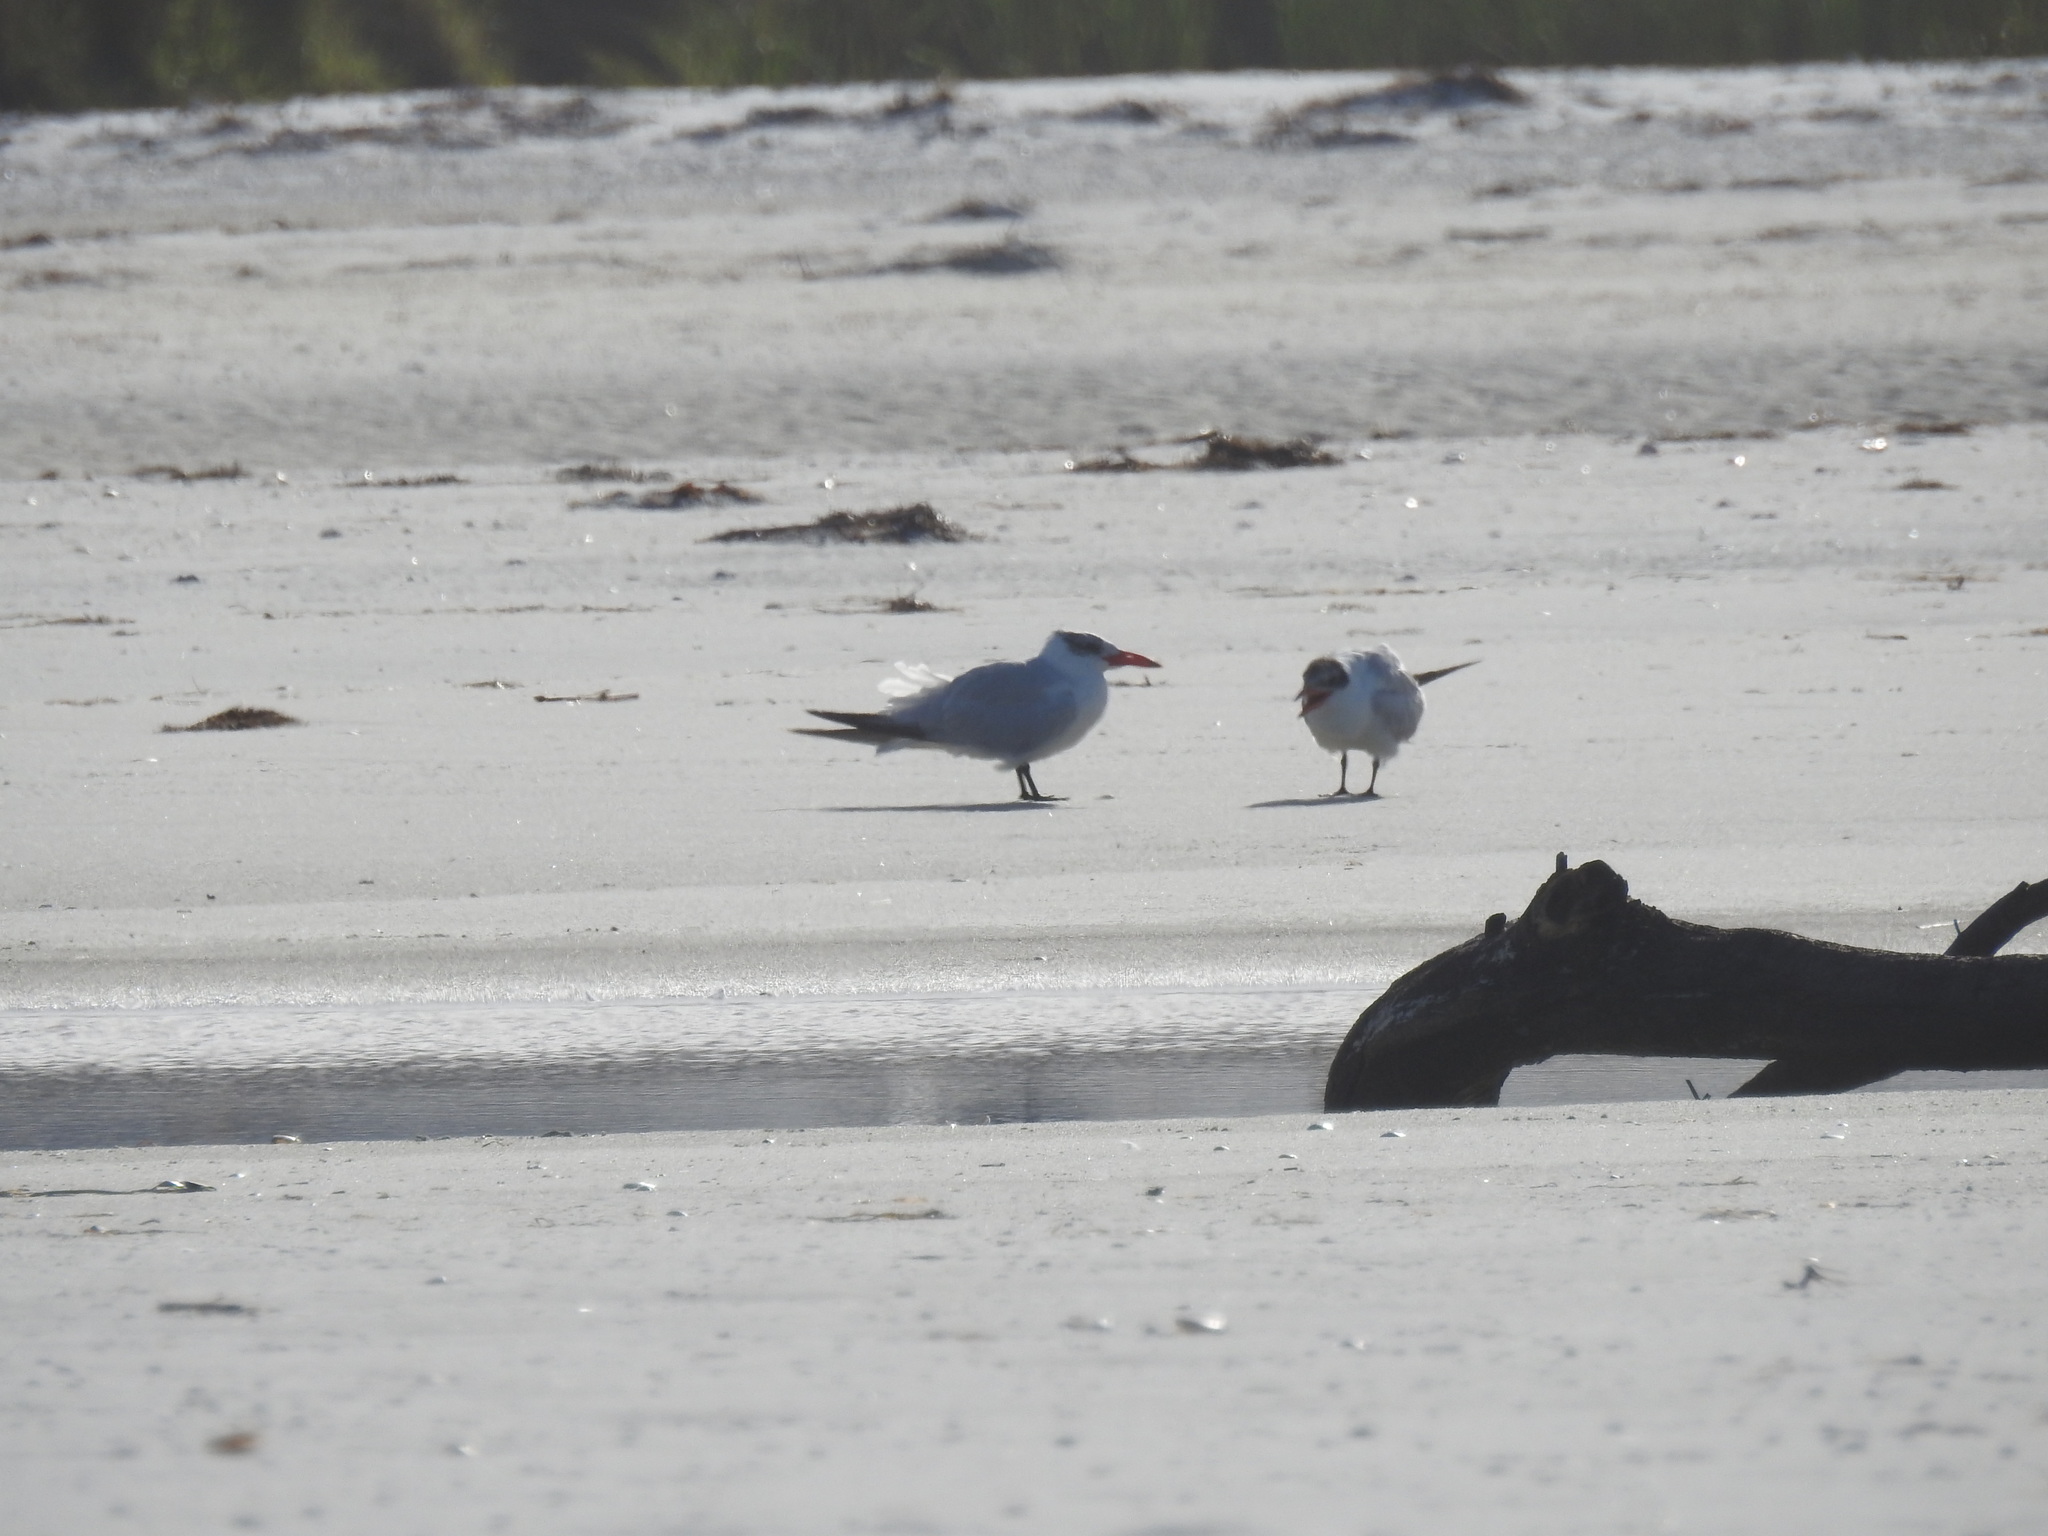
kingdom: Animalia
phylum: Chordata
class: Aves
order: Charadriiformes
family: Laridae
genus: Hydroprogne
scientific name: Hydroprogne caspia
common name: Caspian tern
